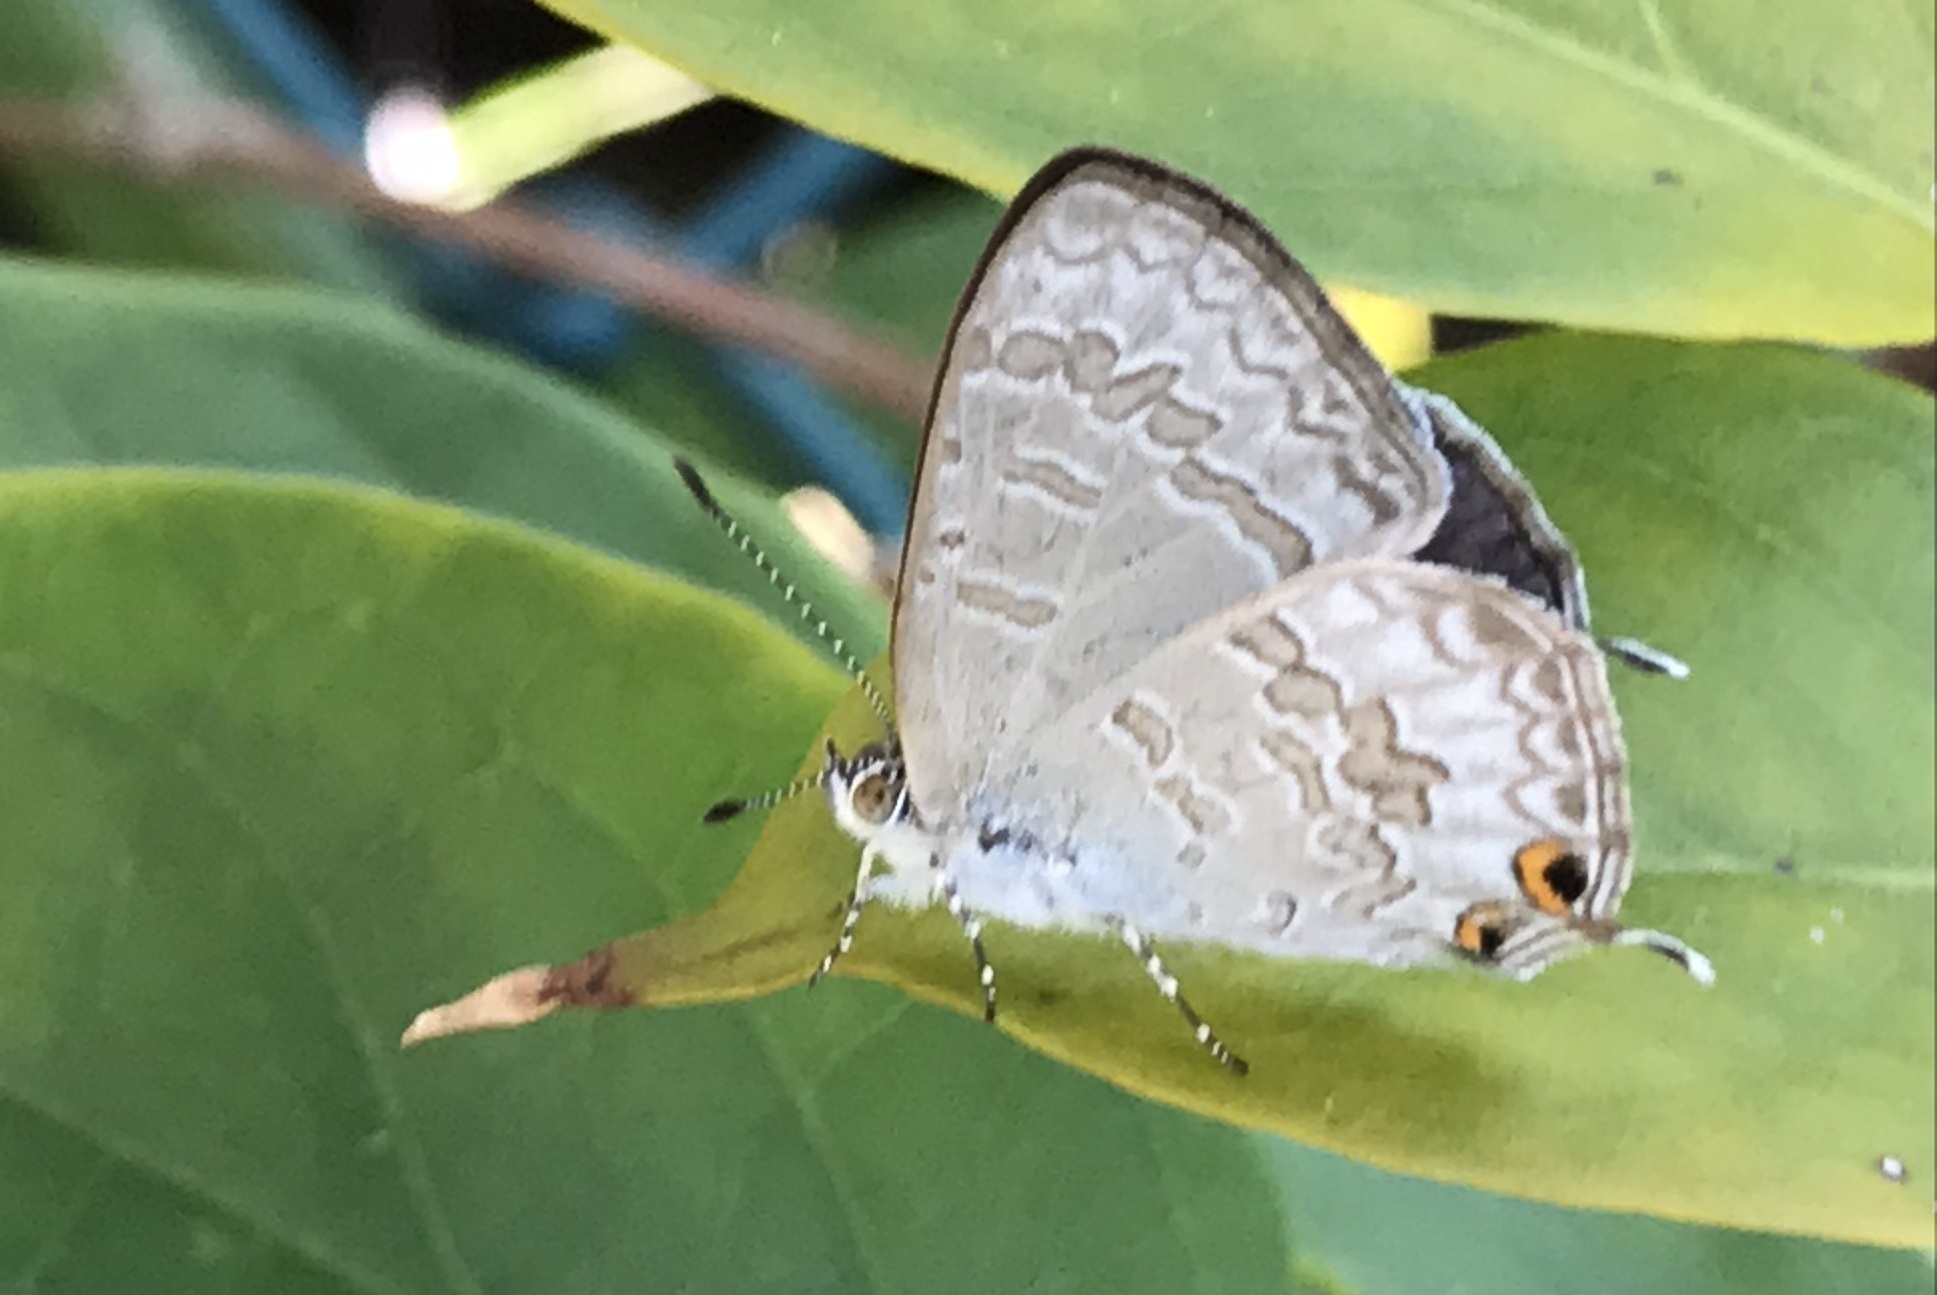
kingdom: Animalia
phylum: Arthropoda
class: Insecta
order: Lepidoptera
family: Lycaenidae
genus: Catopyrops
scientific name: Catopyrops florinda
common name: Speckled line-blue
